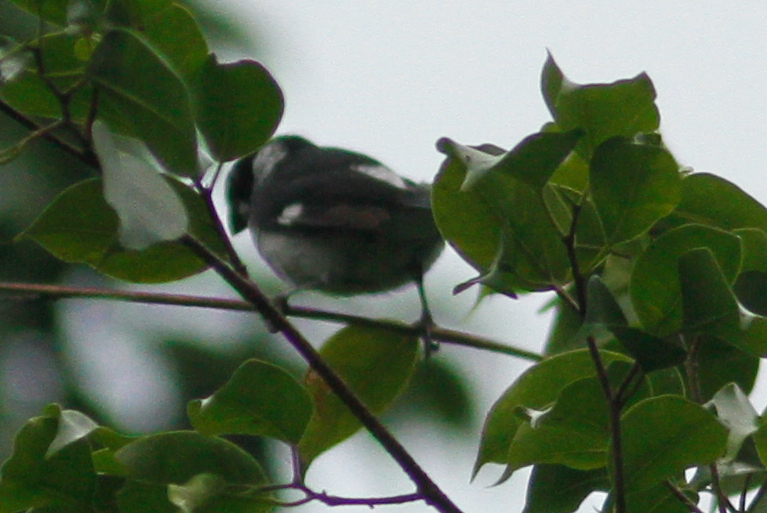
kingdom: Animalia
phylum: Chordata
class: Aves
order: Passeriformes
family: Thraupidae
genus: Sporophila
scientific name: Sporophila corvina
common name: Variable seedeater
